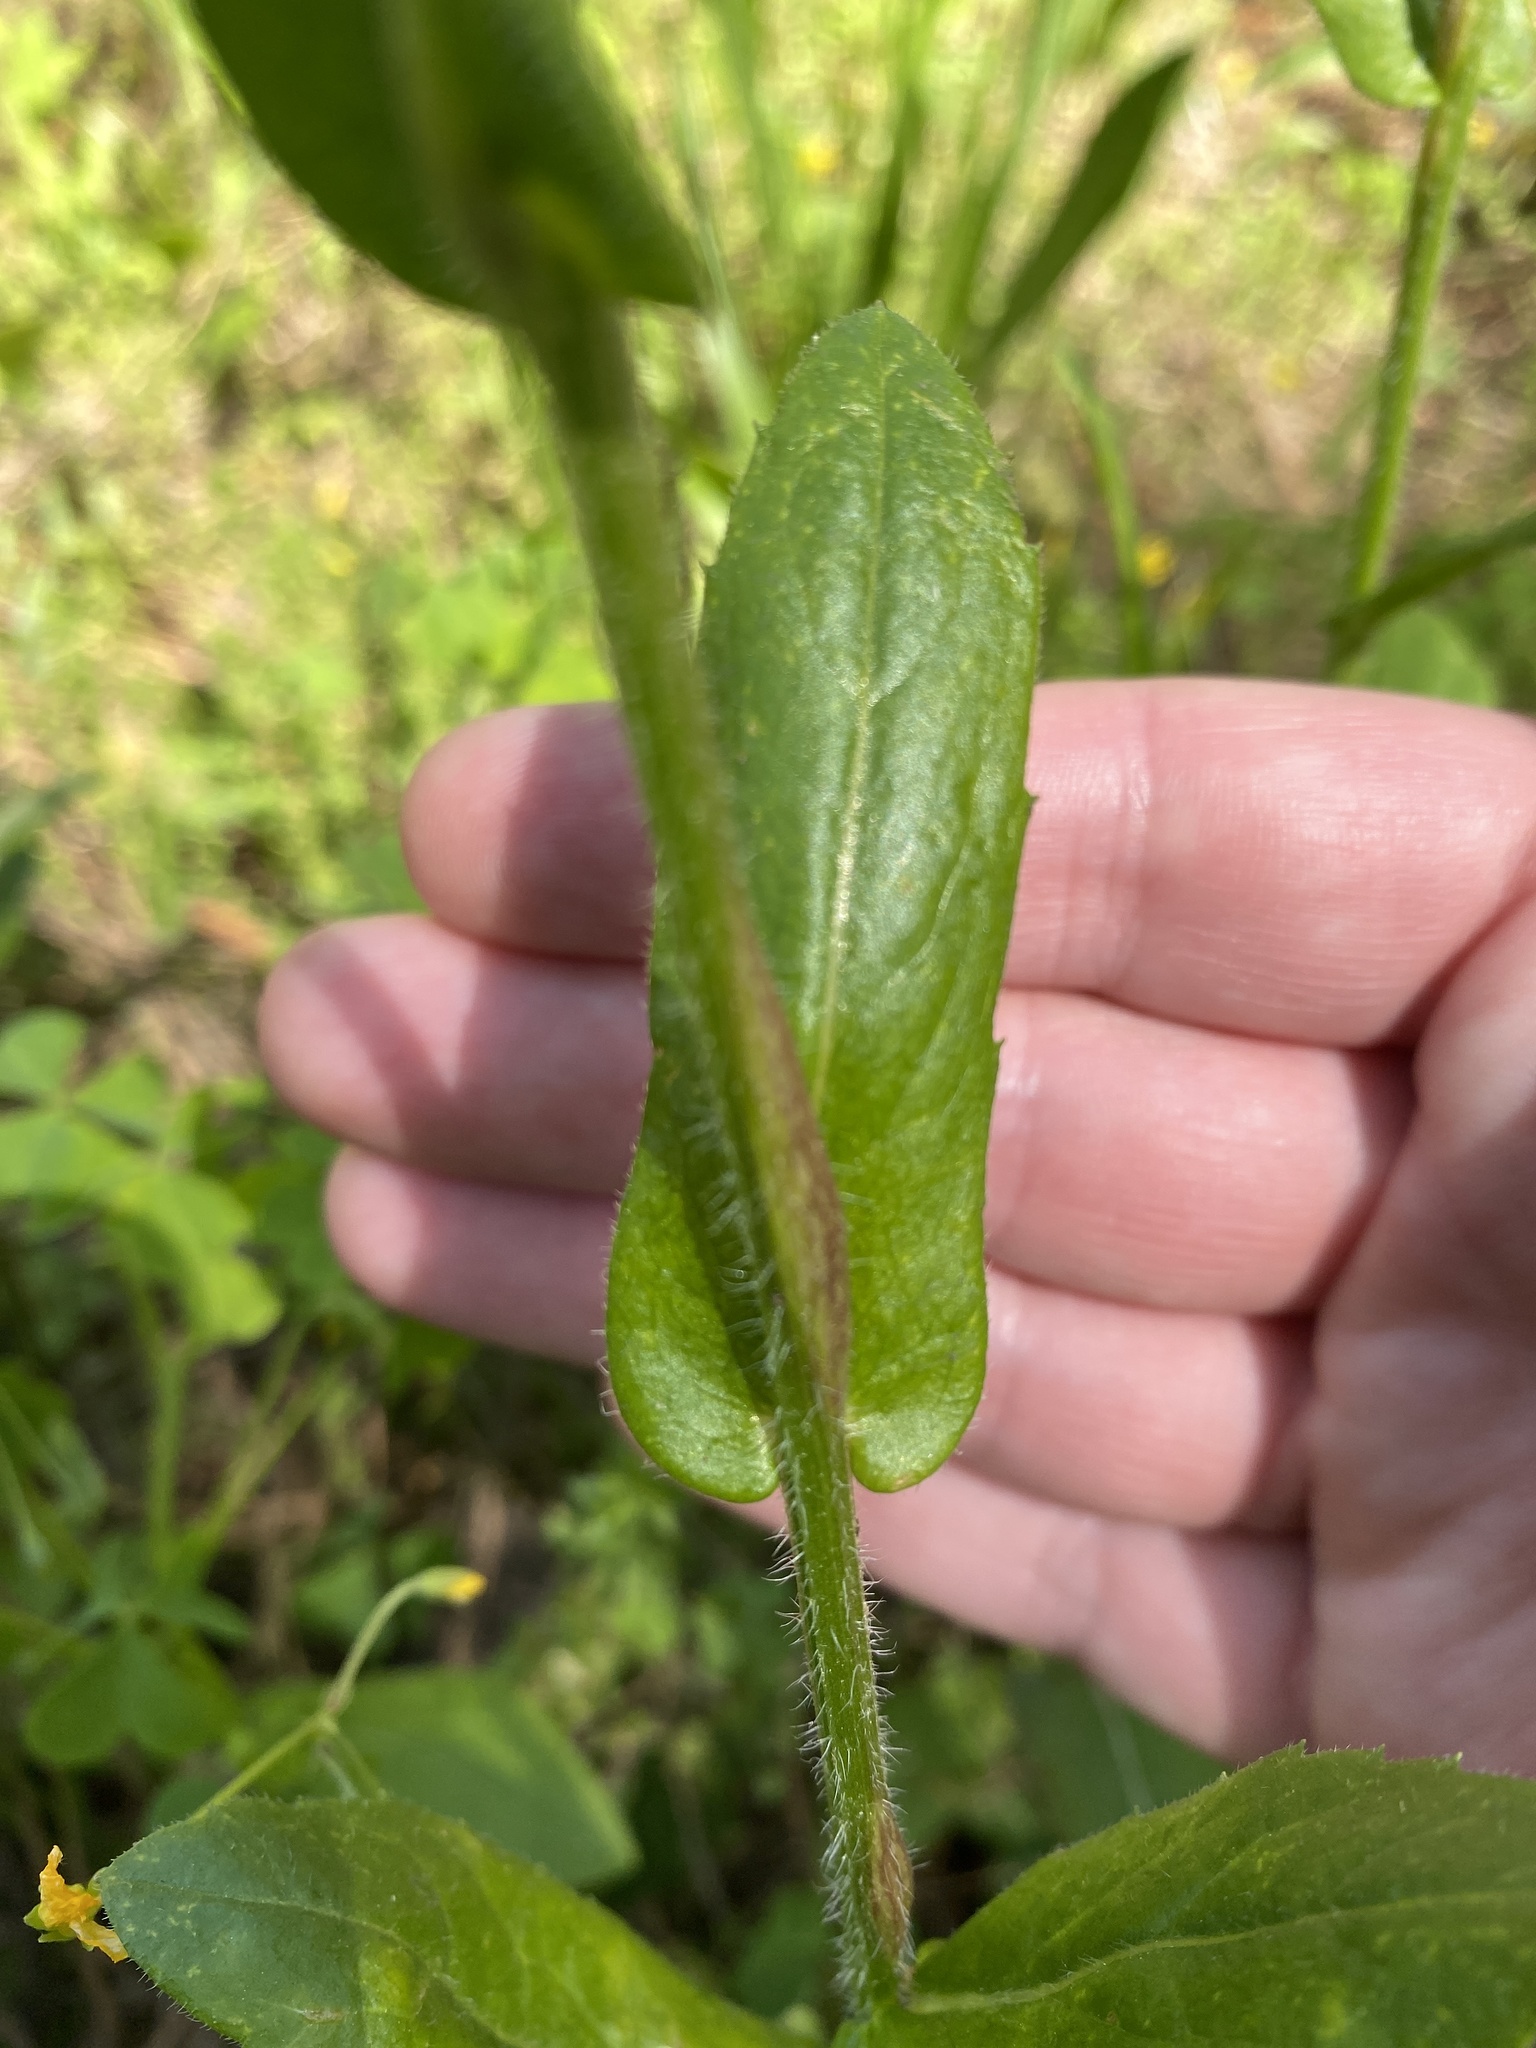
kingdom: Plantae
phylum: Tracheophyta
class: Magnoliopsida
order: Asterales
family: Asteraceae
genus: Erigeron
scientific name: Erigeron philadelphicus
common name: Robin's-plantain
